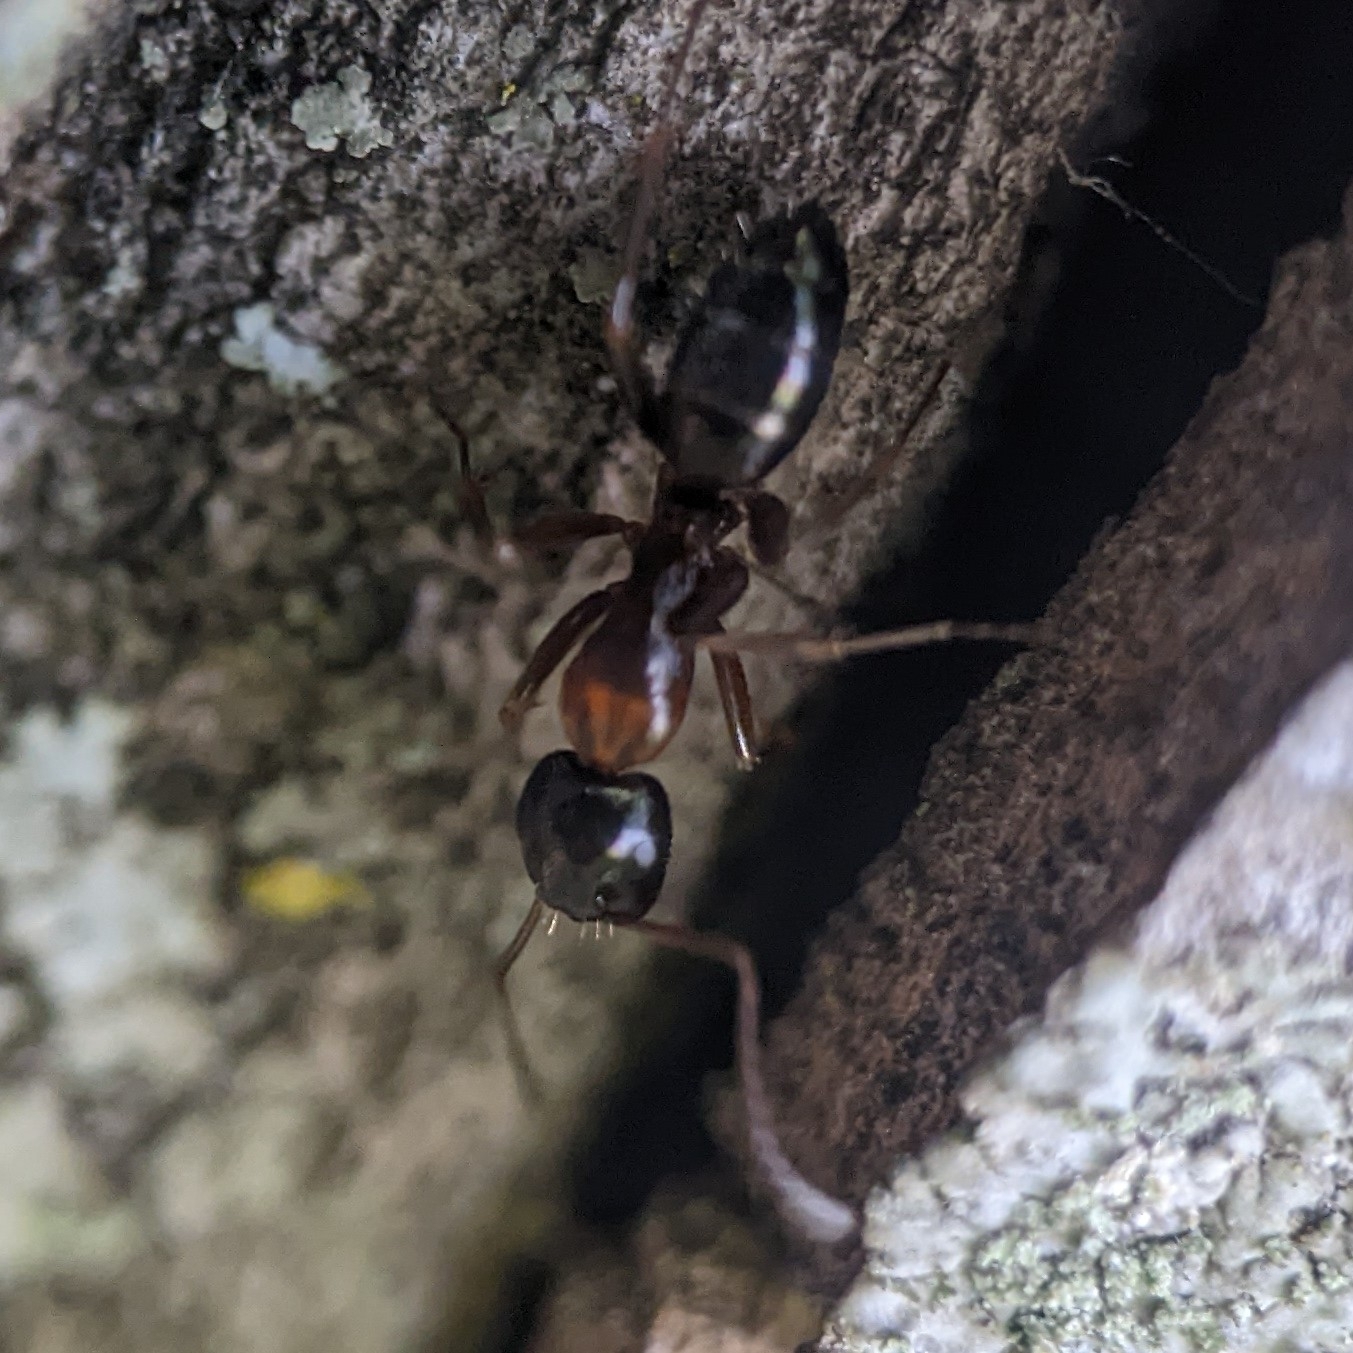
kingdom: Animalia
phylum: Arthropoda
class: Insecta
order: Hymenoptera
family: Formicidae
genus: Camponotus
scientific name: Camponotus nearcticus
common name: Smaller carpenter ant
